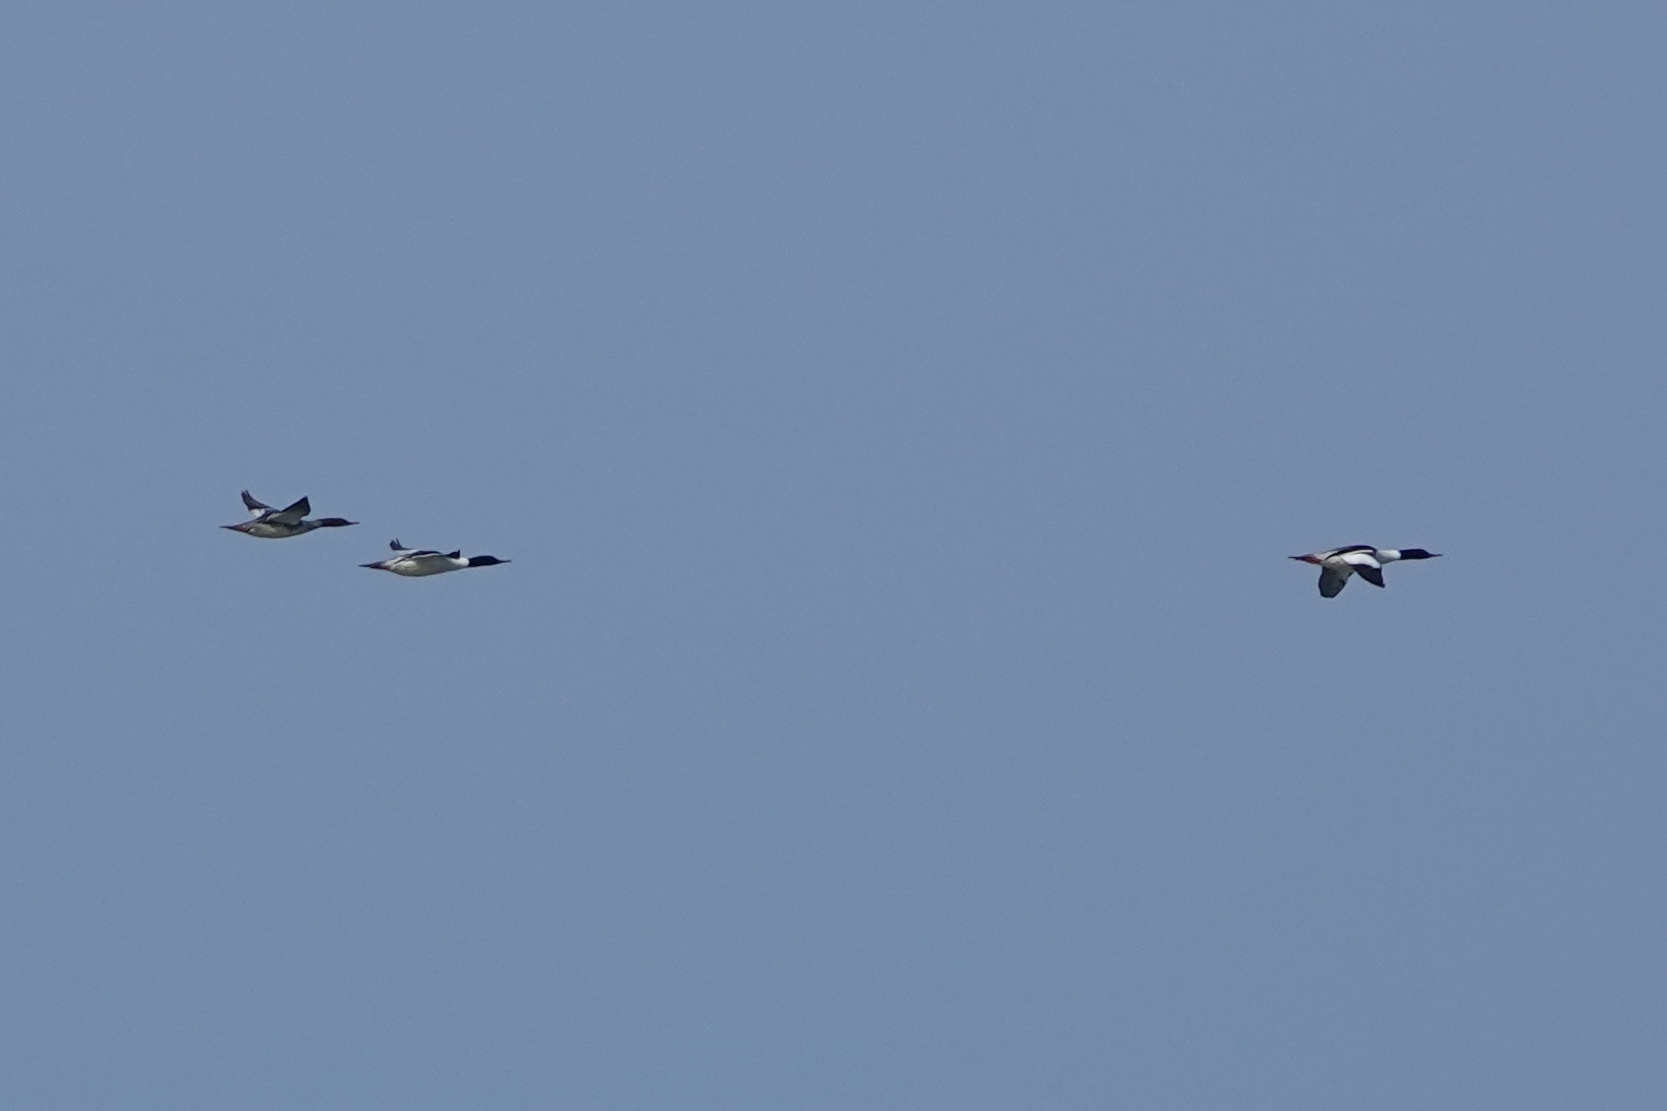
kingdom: Animalia
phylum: Chordata
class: Aves
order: Anseriformes
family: Anatidae
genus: Mergus
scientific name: Mergus merganser
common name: Common merganser
